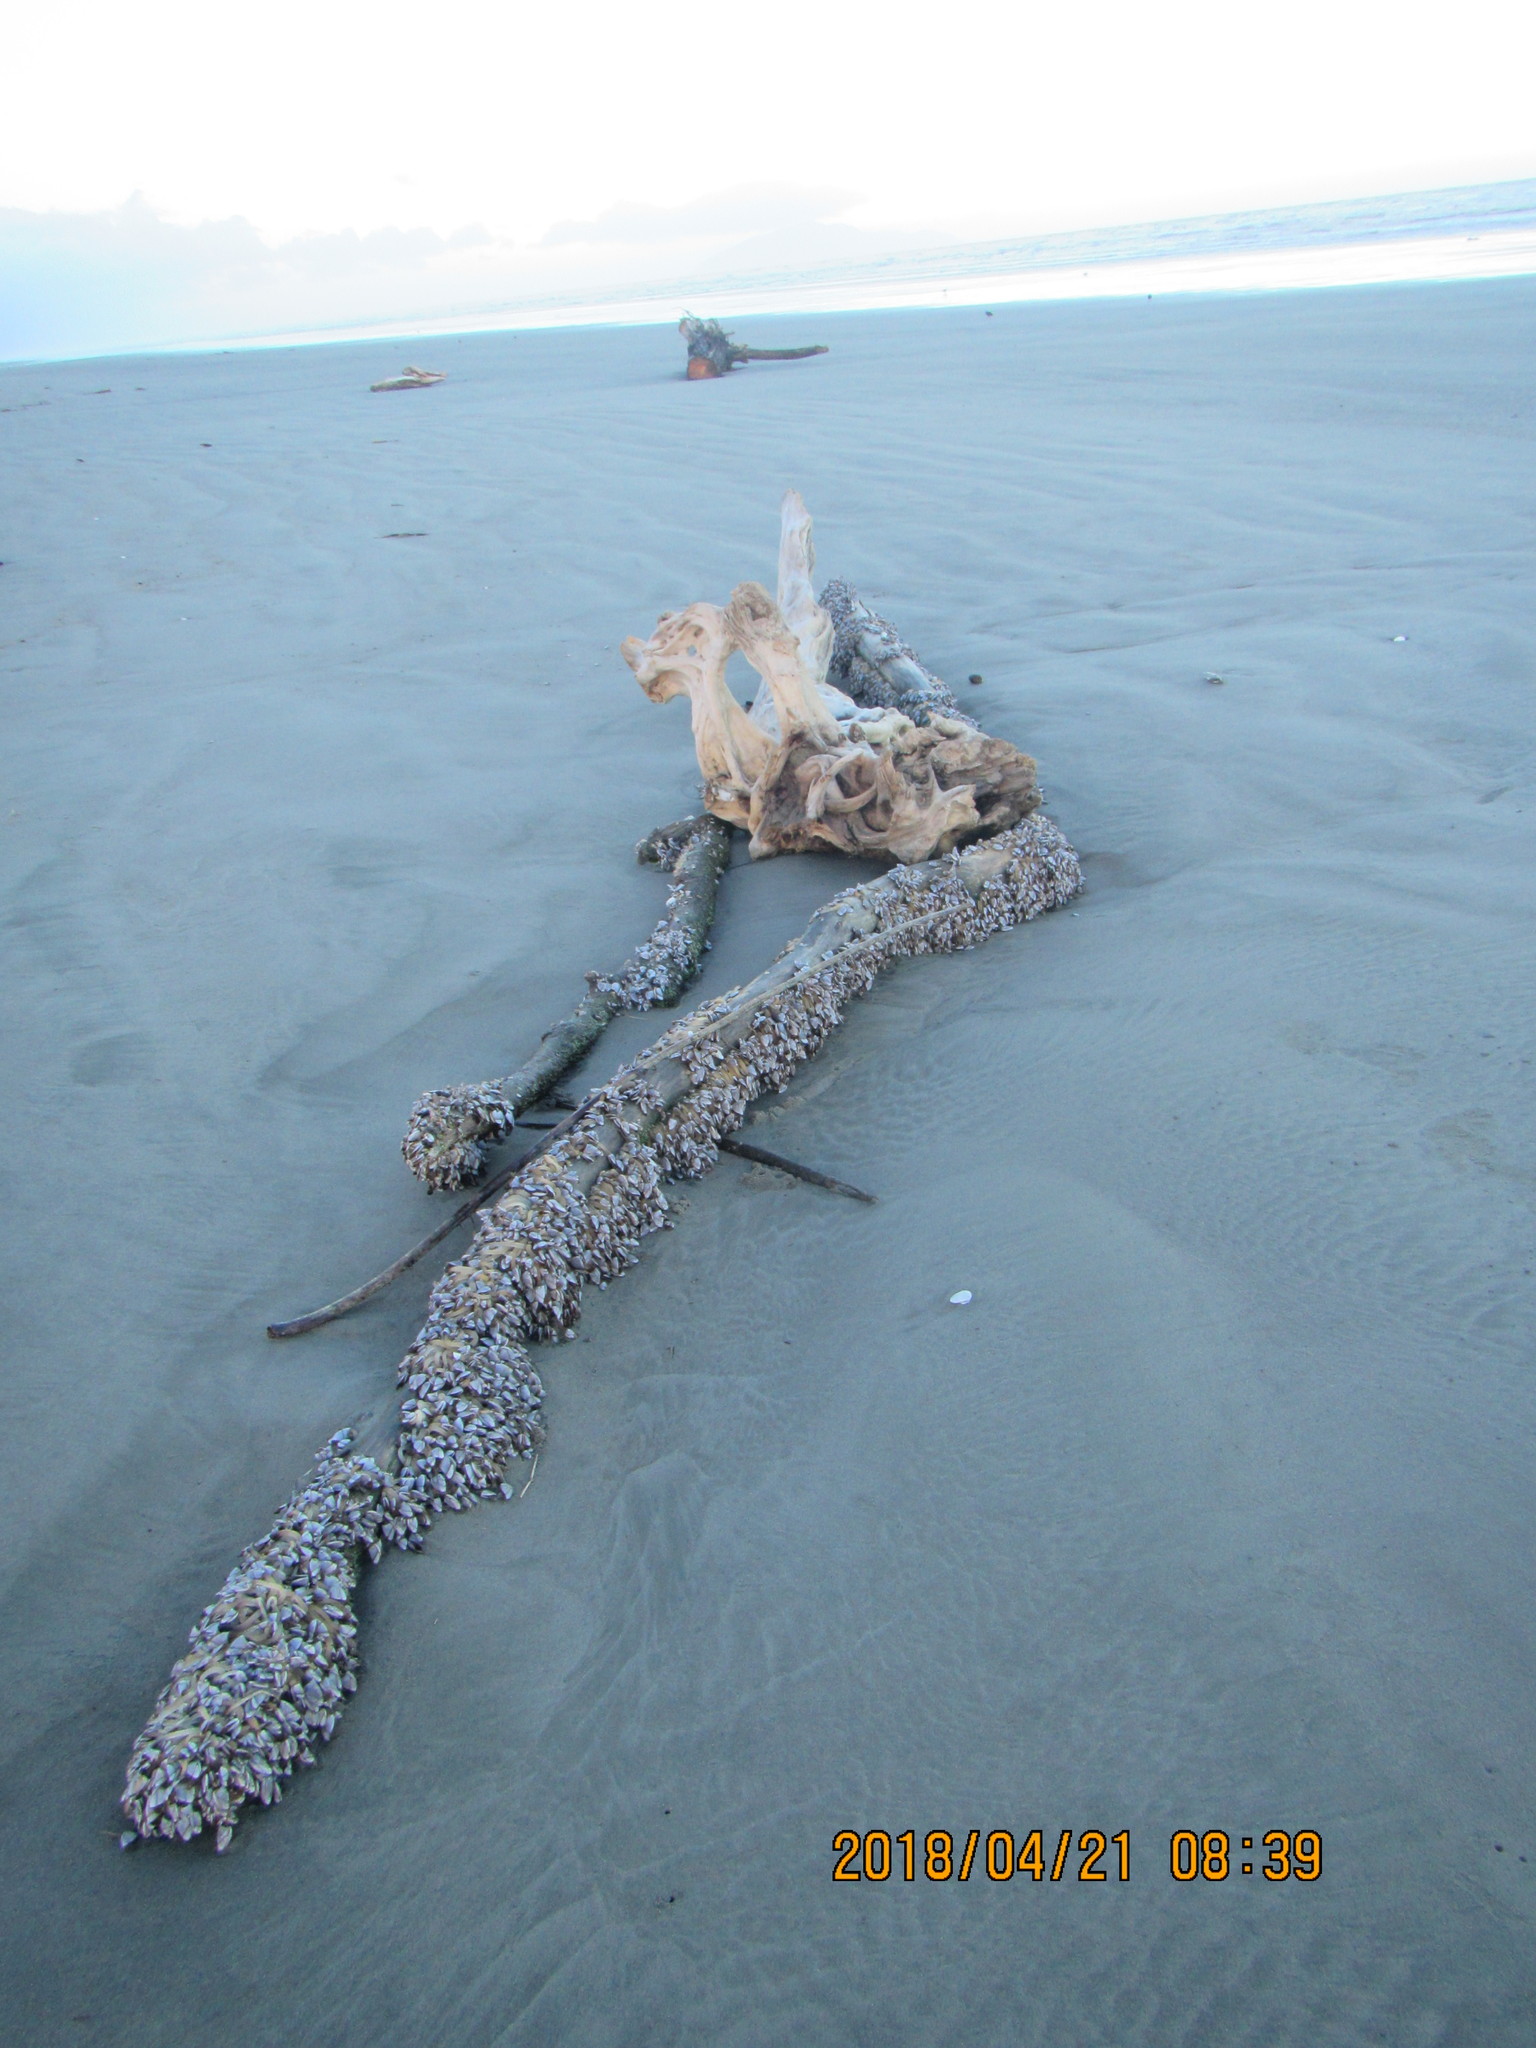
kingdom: Animalia
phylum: Arthropoda
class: Maxillopoda
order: Pedunculata
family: Lepadidae
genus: Lepas
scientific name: Lepas anatifera
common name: Common goose barnacle
